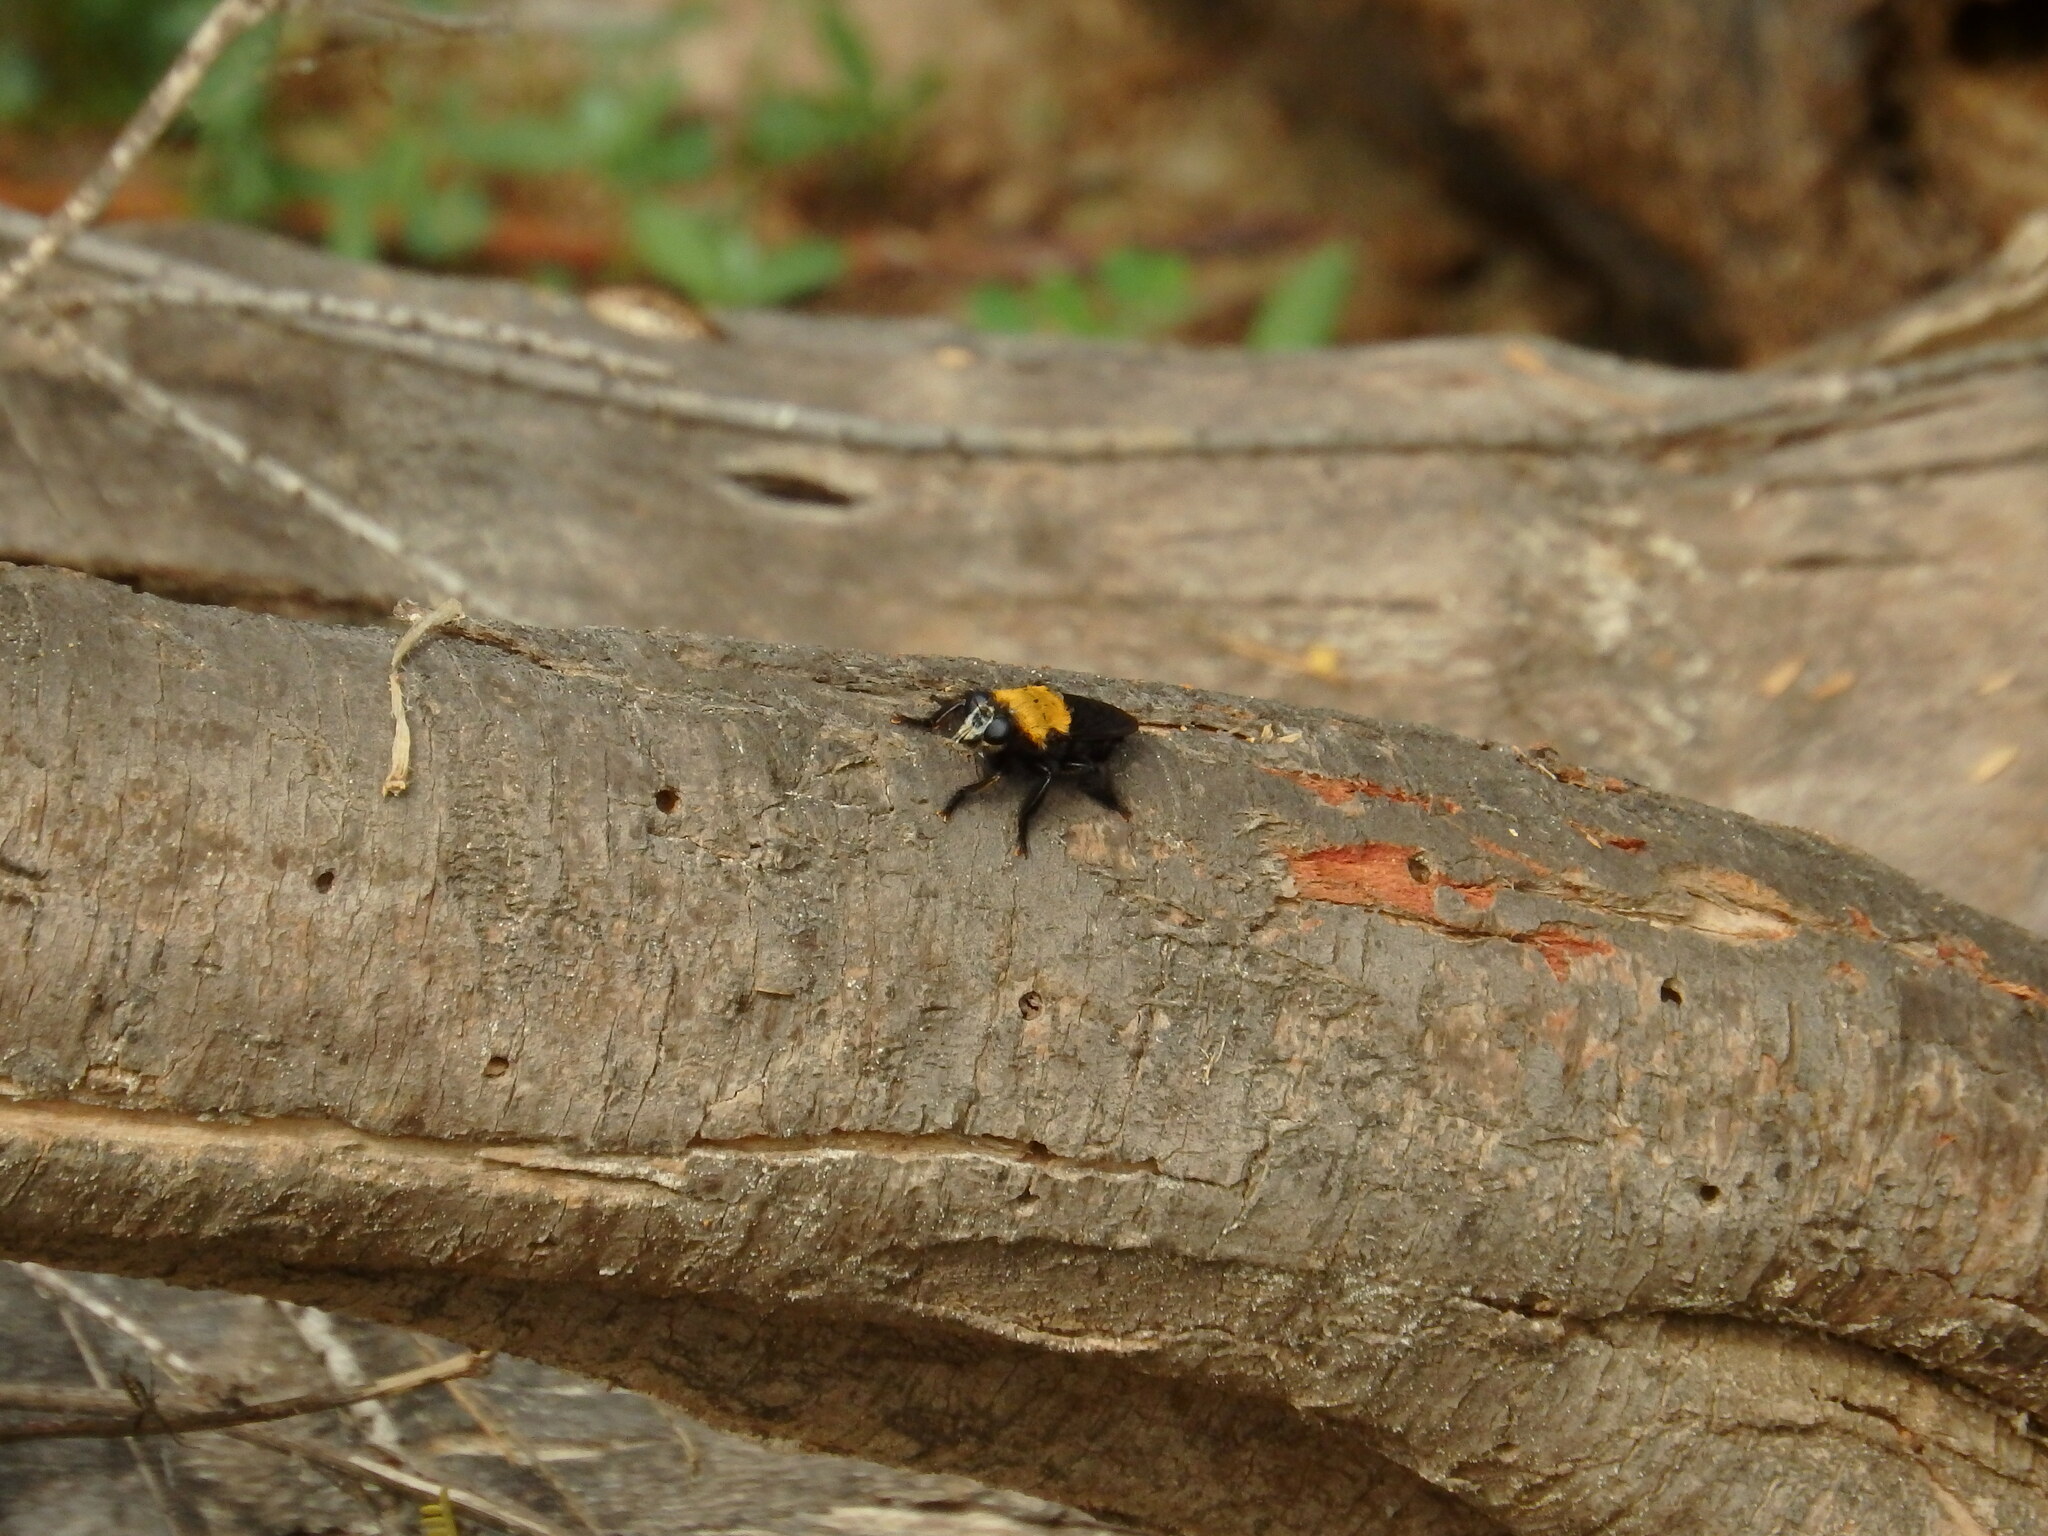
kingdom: Animalia
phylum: Arthropoda
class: Insecta
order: Diptera
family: Asilidae
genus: Hyperechia
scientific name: Hyperechia
